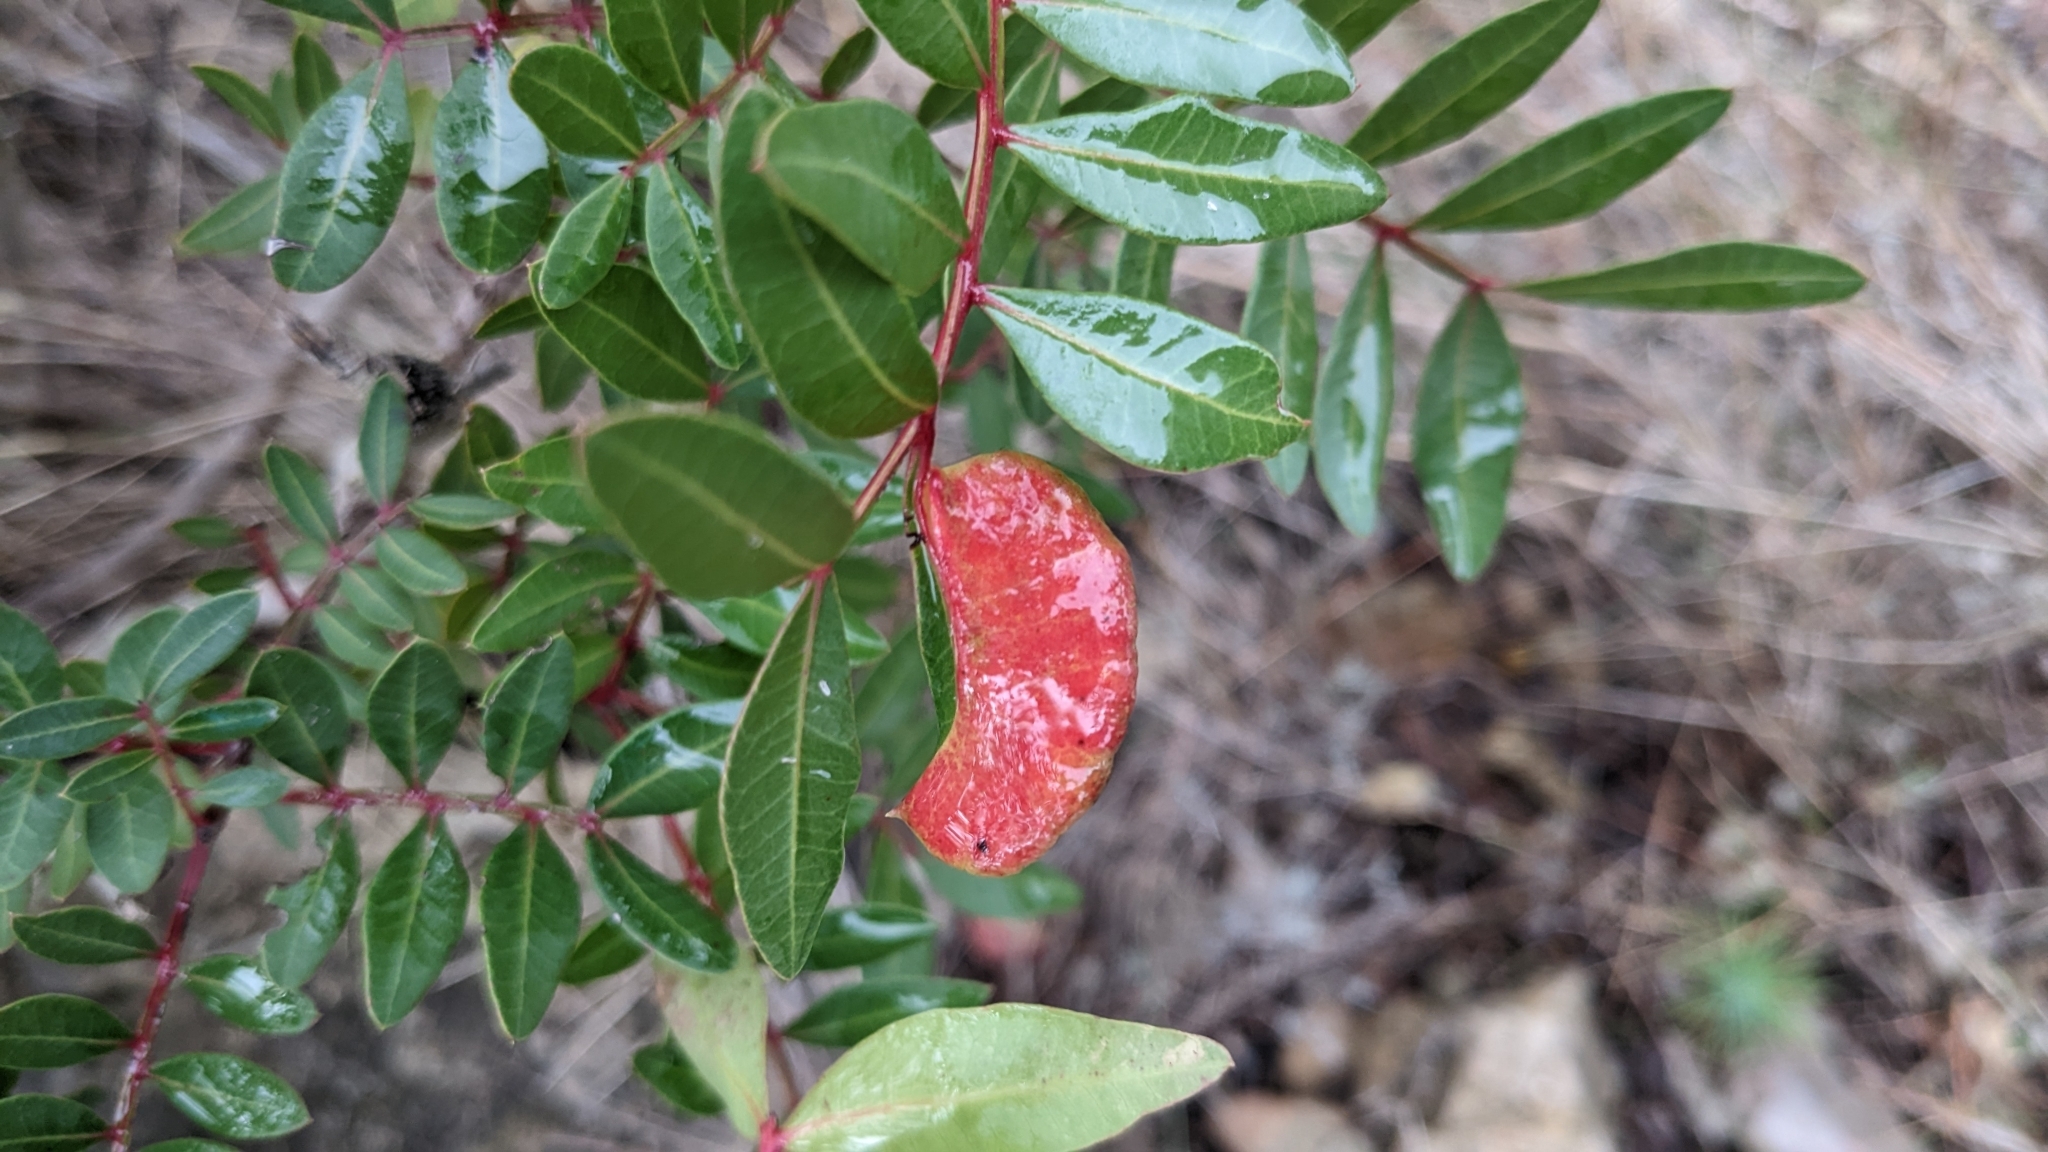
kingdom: Animalia
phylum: Arthropoda
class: Insecta
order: Hemiptera
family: Aphididae
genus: Aploneura
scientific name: Aploneura lentisci
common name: Mealy grass root aphid
